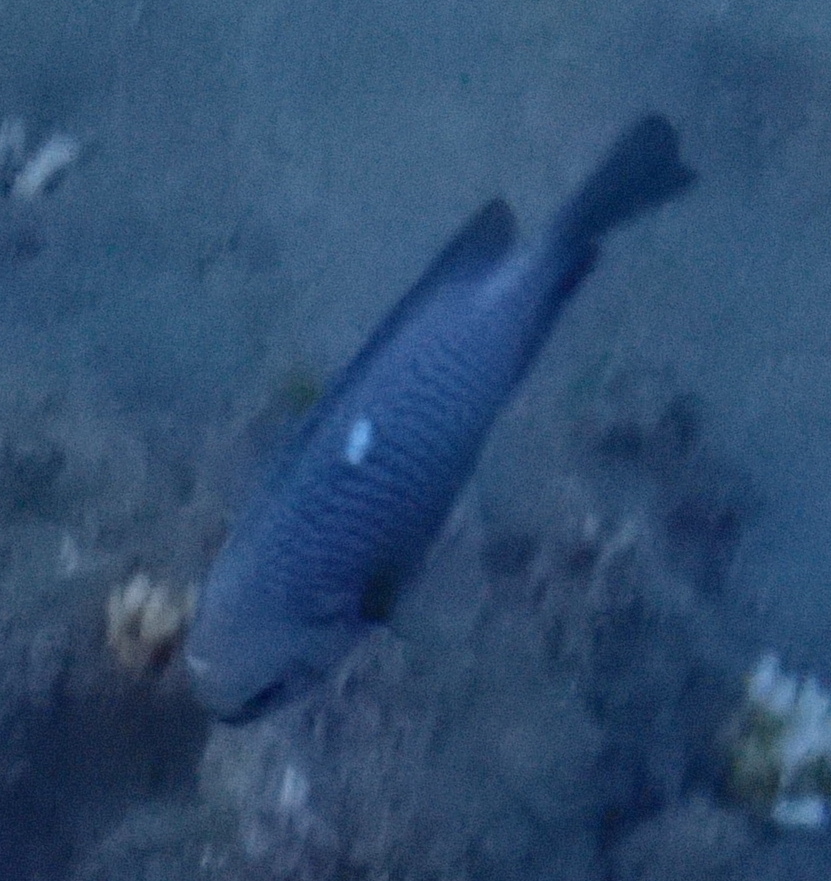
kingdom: Animalia
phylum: Chordata
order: Perciformes
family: Pomacentridae
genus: Dascyllus
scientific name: Dascyllus trimaculatus
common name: Threespot dascyllus
